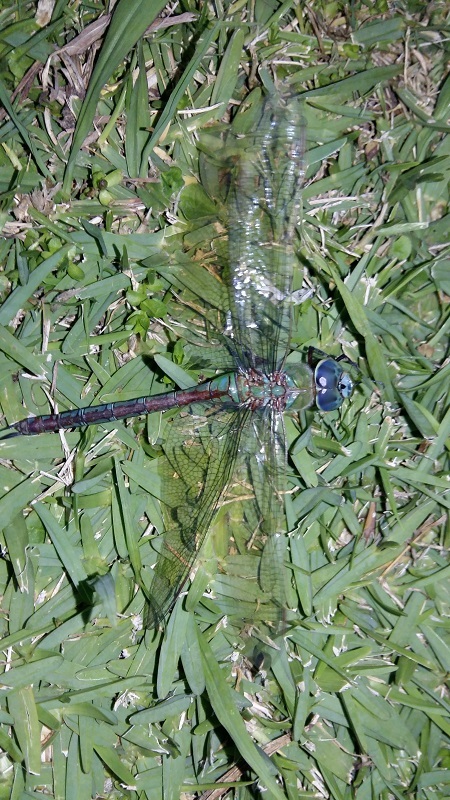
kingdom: Animalia
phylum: Arthropoda
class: Insecta
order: Odonata
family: Aeshnidae
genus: Anax
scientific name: Anax imperator
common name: Emperor dragonfly
